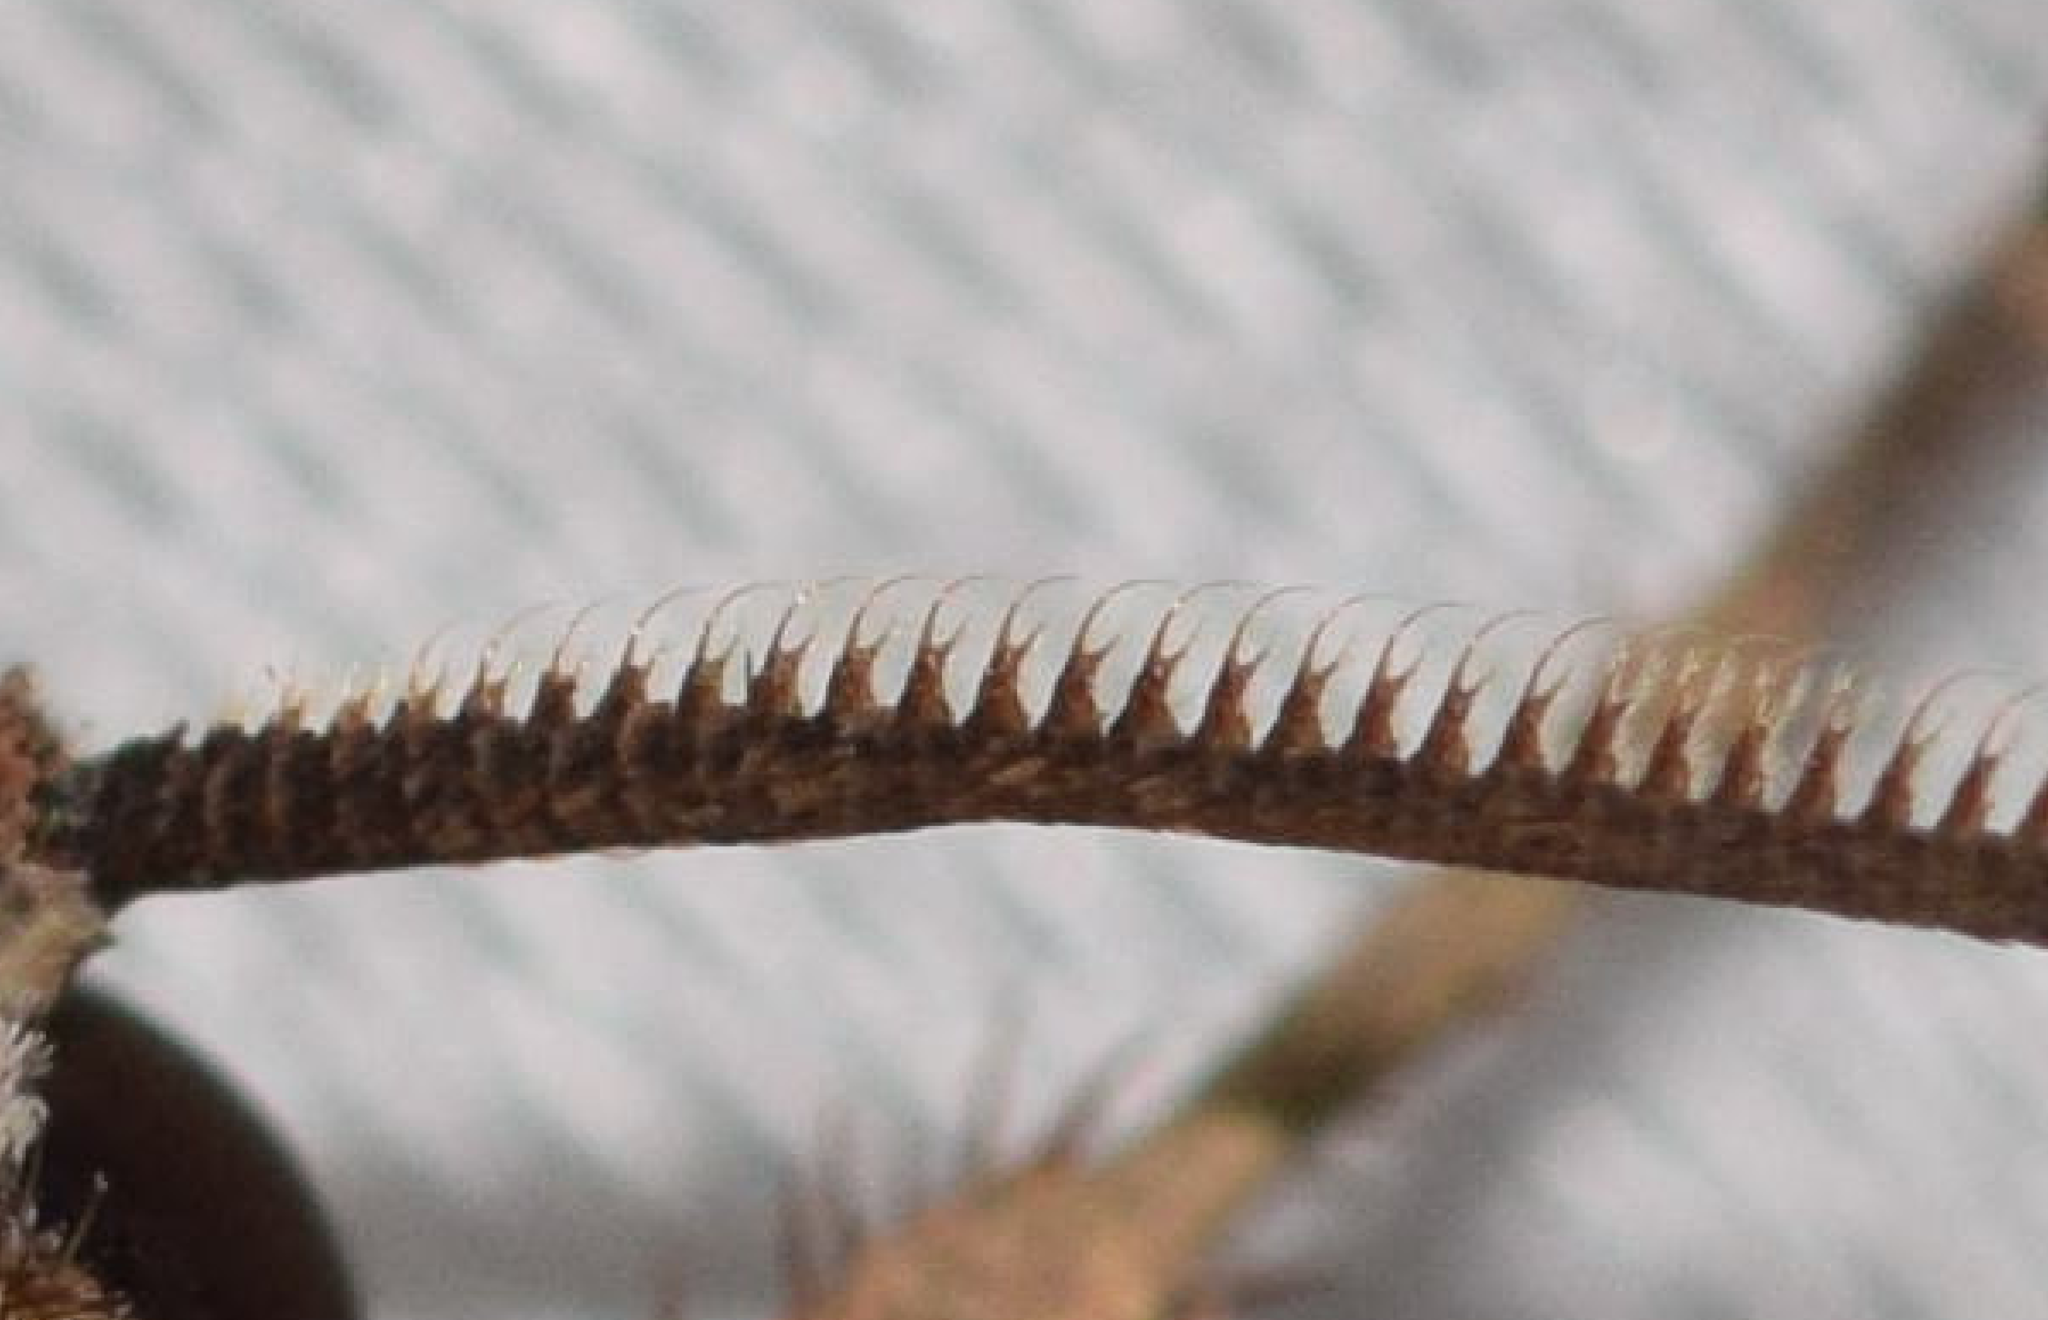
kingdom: Animalia
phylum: Arthropoda
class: Insecta
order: Lepidoptera
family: Noctuidae
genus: Feltia
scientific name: Feltia tricosa
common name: Confused dart moth
